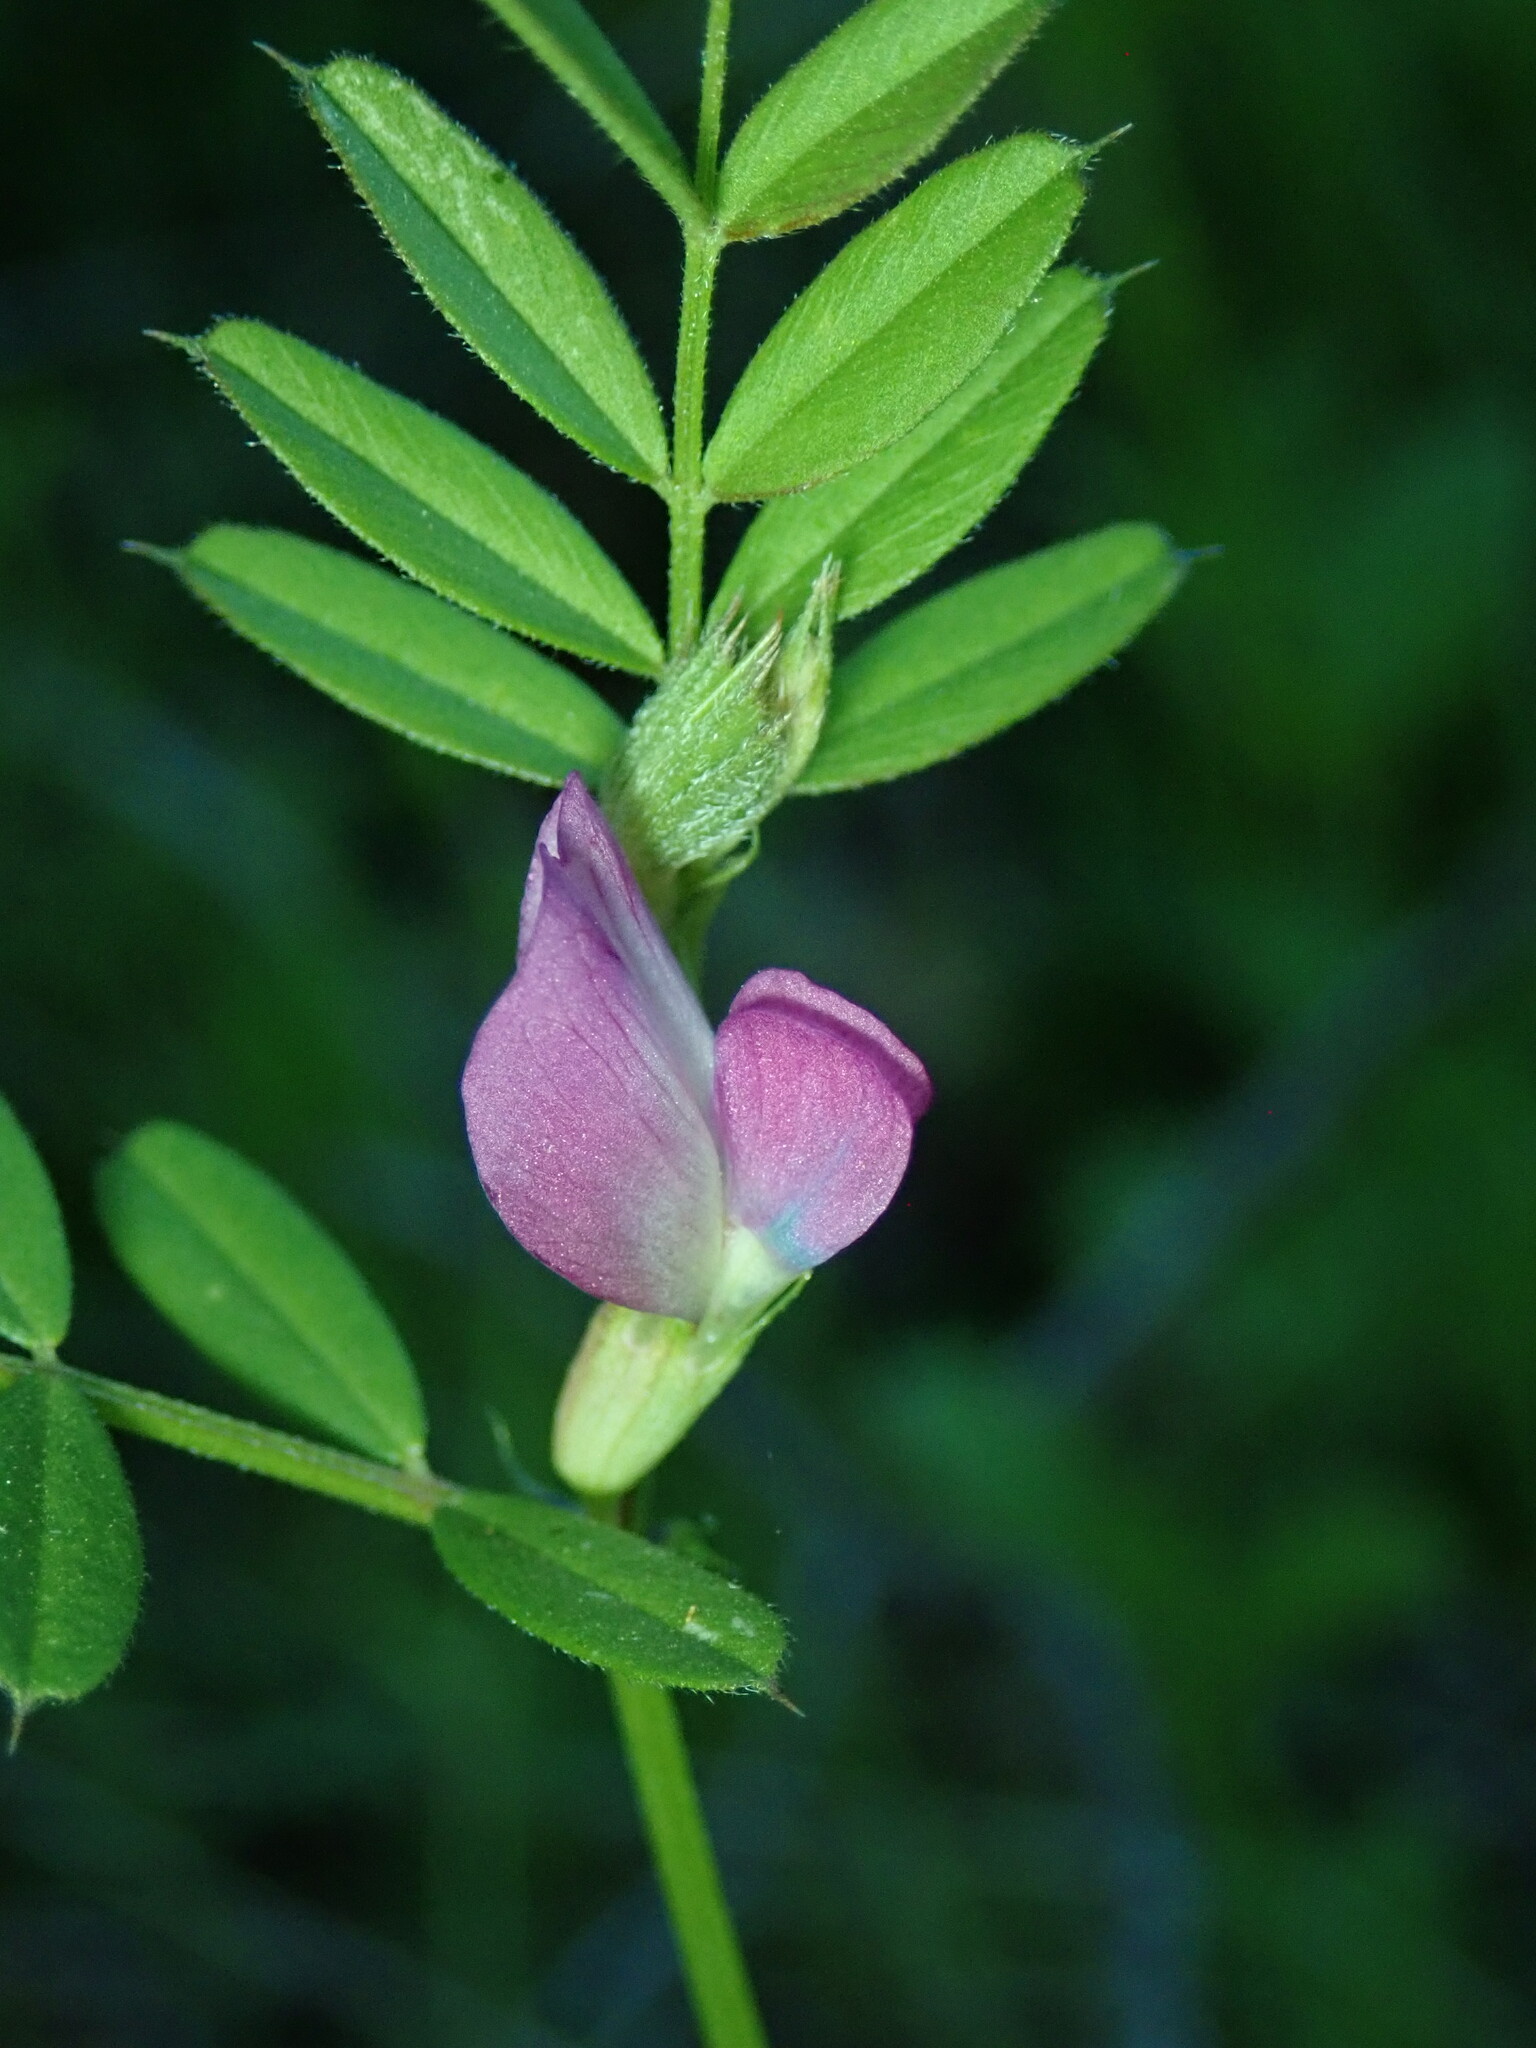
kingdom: Plantae
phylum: Tracheophyta
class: Magnoliopsida
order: Fabales
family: Fabaceae
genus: Vicia
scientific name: Vicia sativa
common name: Garden vetch
